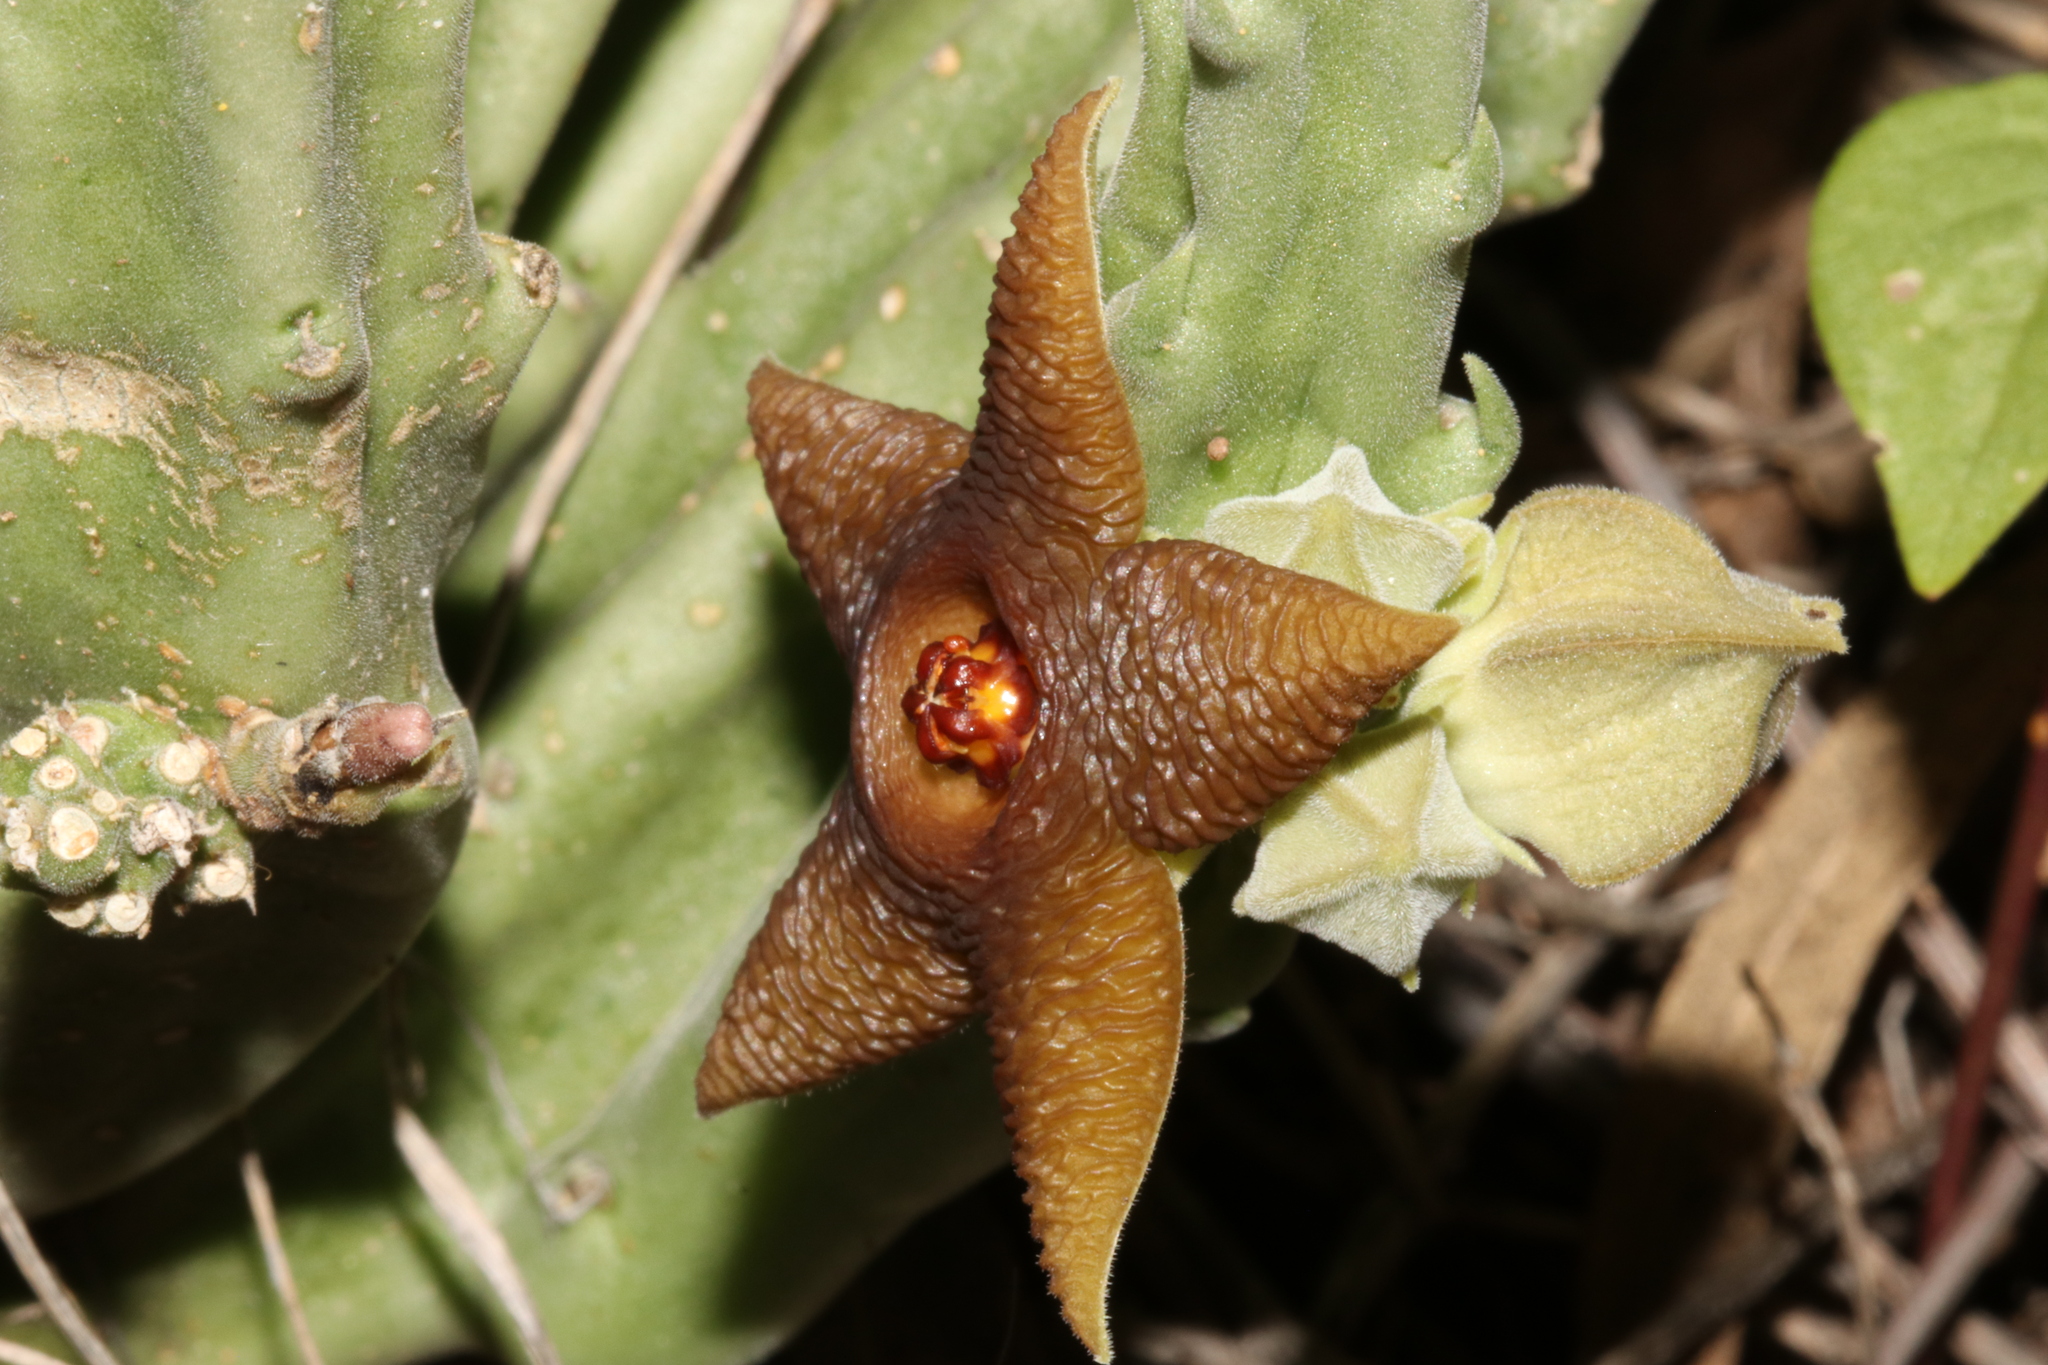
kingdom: Plantae
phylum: Tracheophyta
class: Magnoliopsida
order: Gentianales
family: Apocynaceae
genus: Ceropegia
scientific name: Ceropegia longipedicellata
